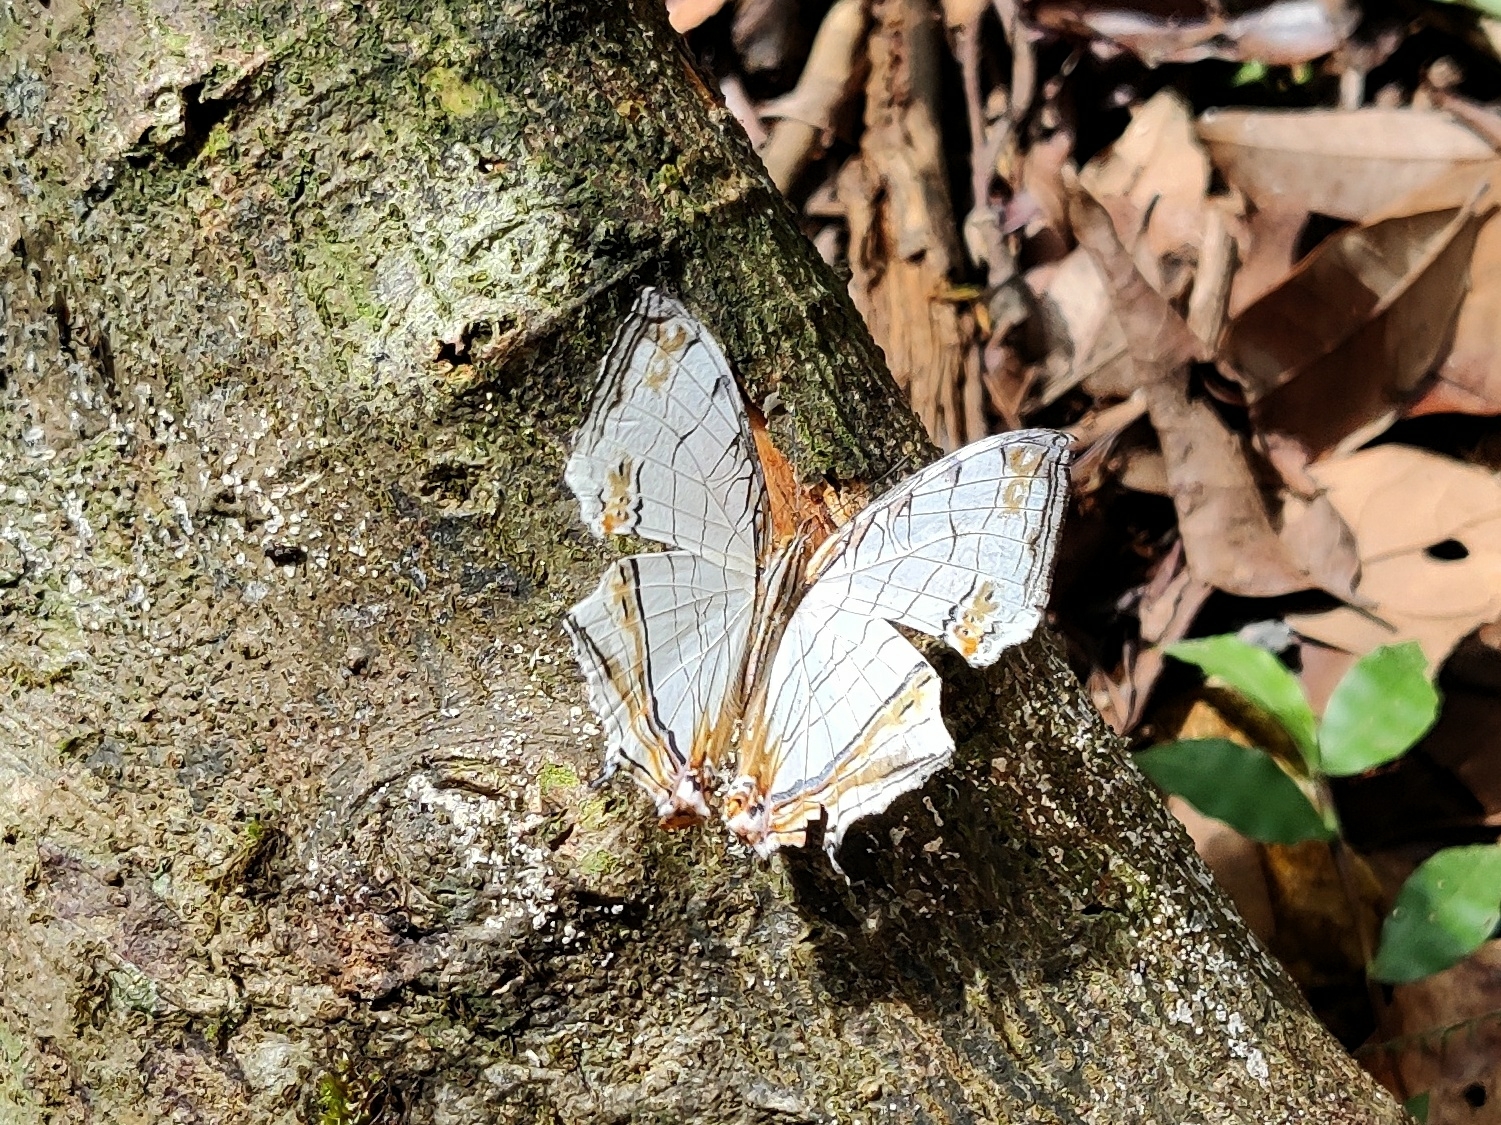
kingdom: Animalia
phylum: Arthropoda
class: Insecta
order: Lepidoptera
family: Nymphalidae
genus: Cyrestis
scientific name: Cyrestis thyodamas
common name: Common mapwing
